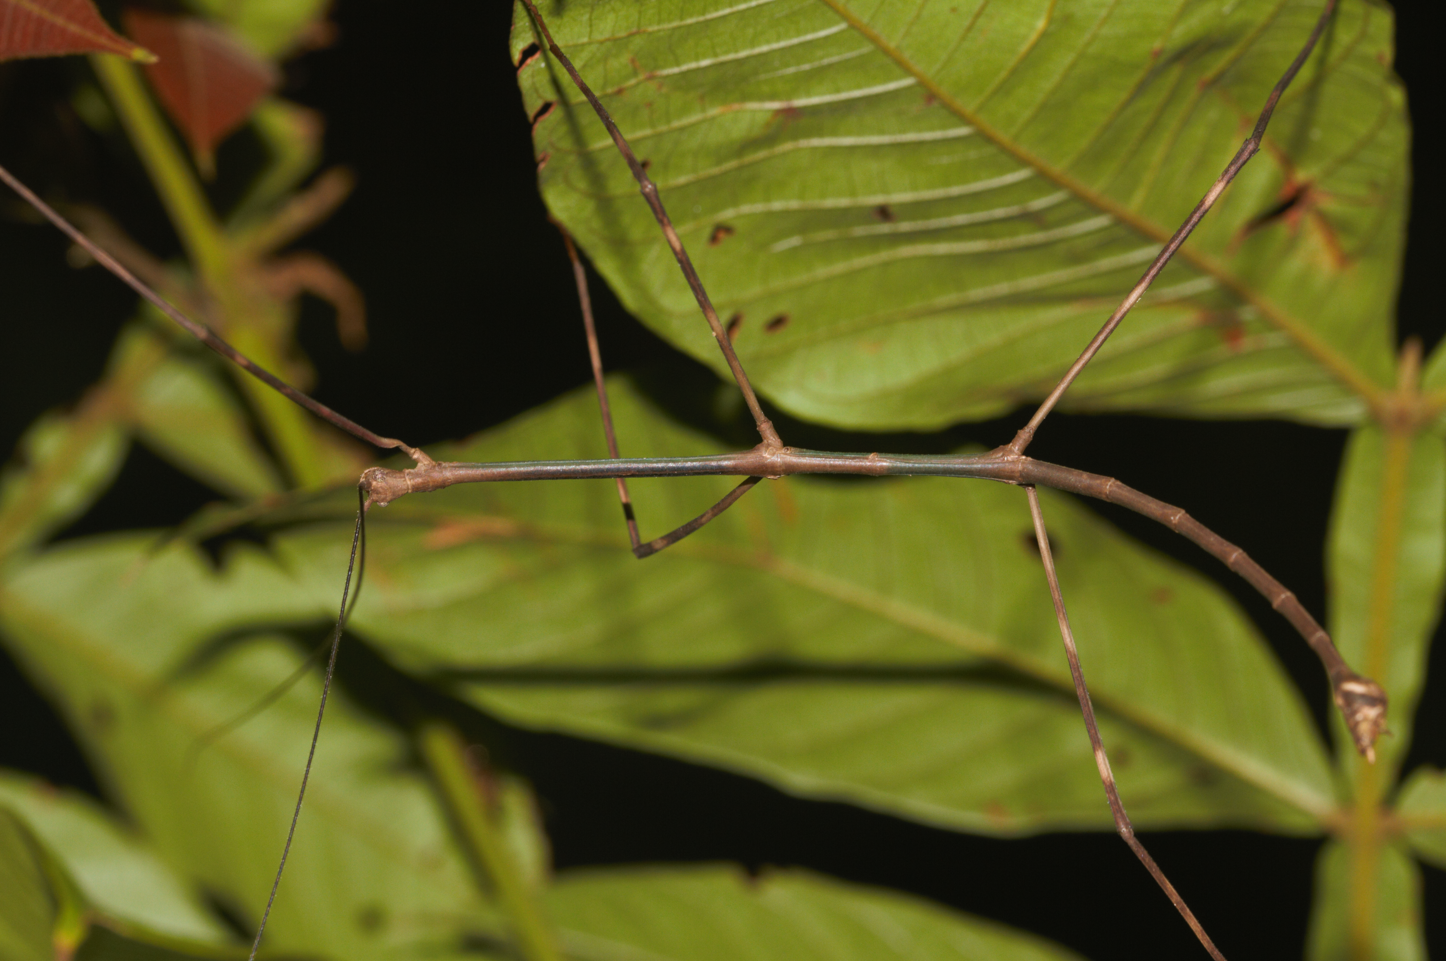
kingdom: Animalia
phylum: Arthropoda
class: Insecta
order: Phasmida
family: Diapheromeridae
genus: Phanocloidea
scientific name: Phanocloidea muricata
